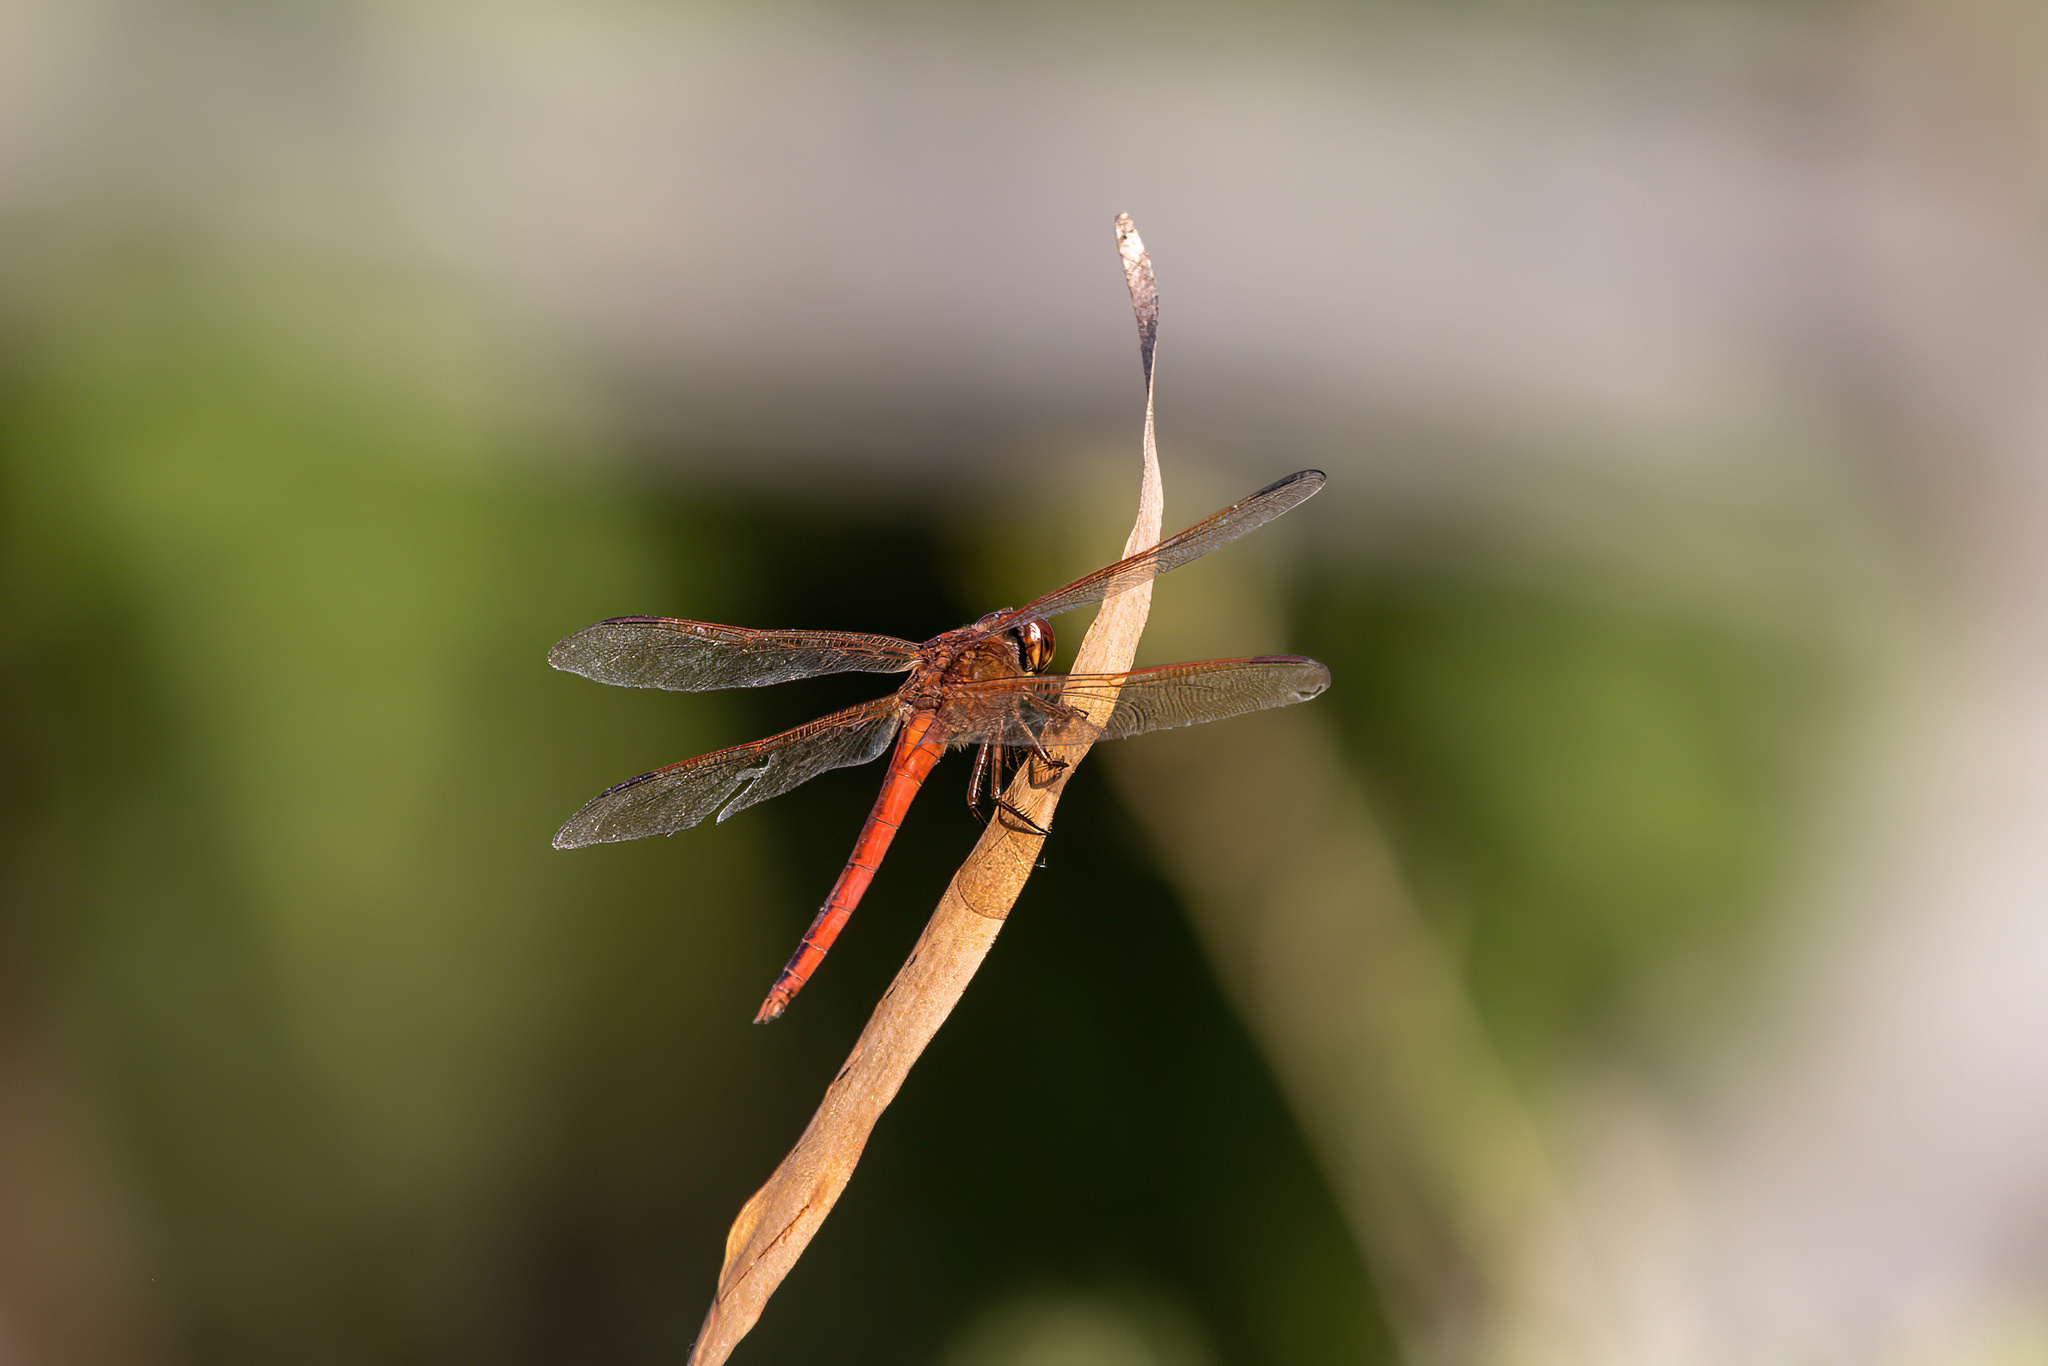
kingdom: Animalia
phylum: Arthropoda
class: Insecta
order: Odonata
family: Libellulidae
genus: Libellula
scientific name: Libellula needhami
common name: Needham's skimmer
